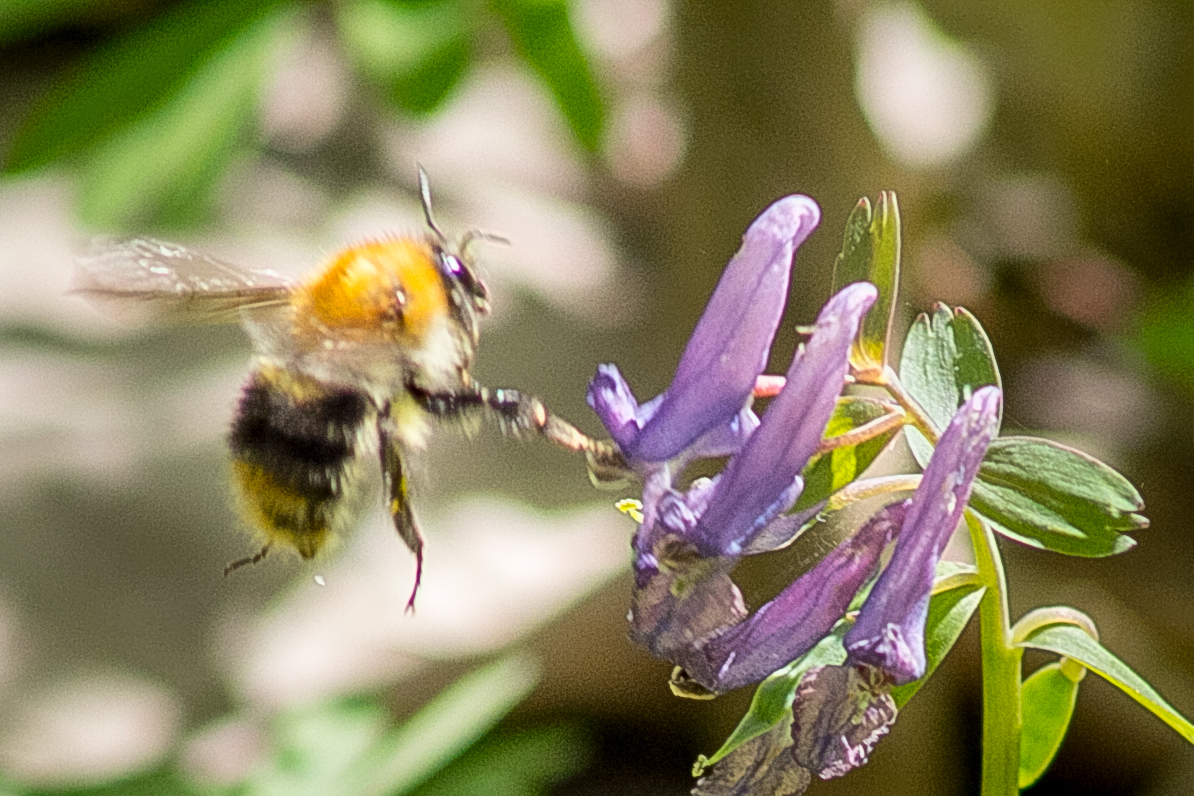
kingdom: Animalia
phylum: Arthropoda
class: Insecta
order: Hymenoptera
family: Apidae
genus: Bombus
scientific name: Bombus pascuorum
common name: Common carder bee
